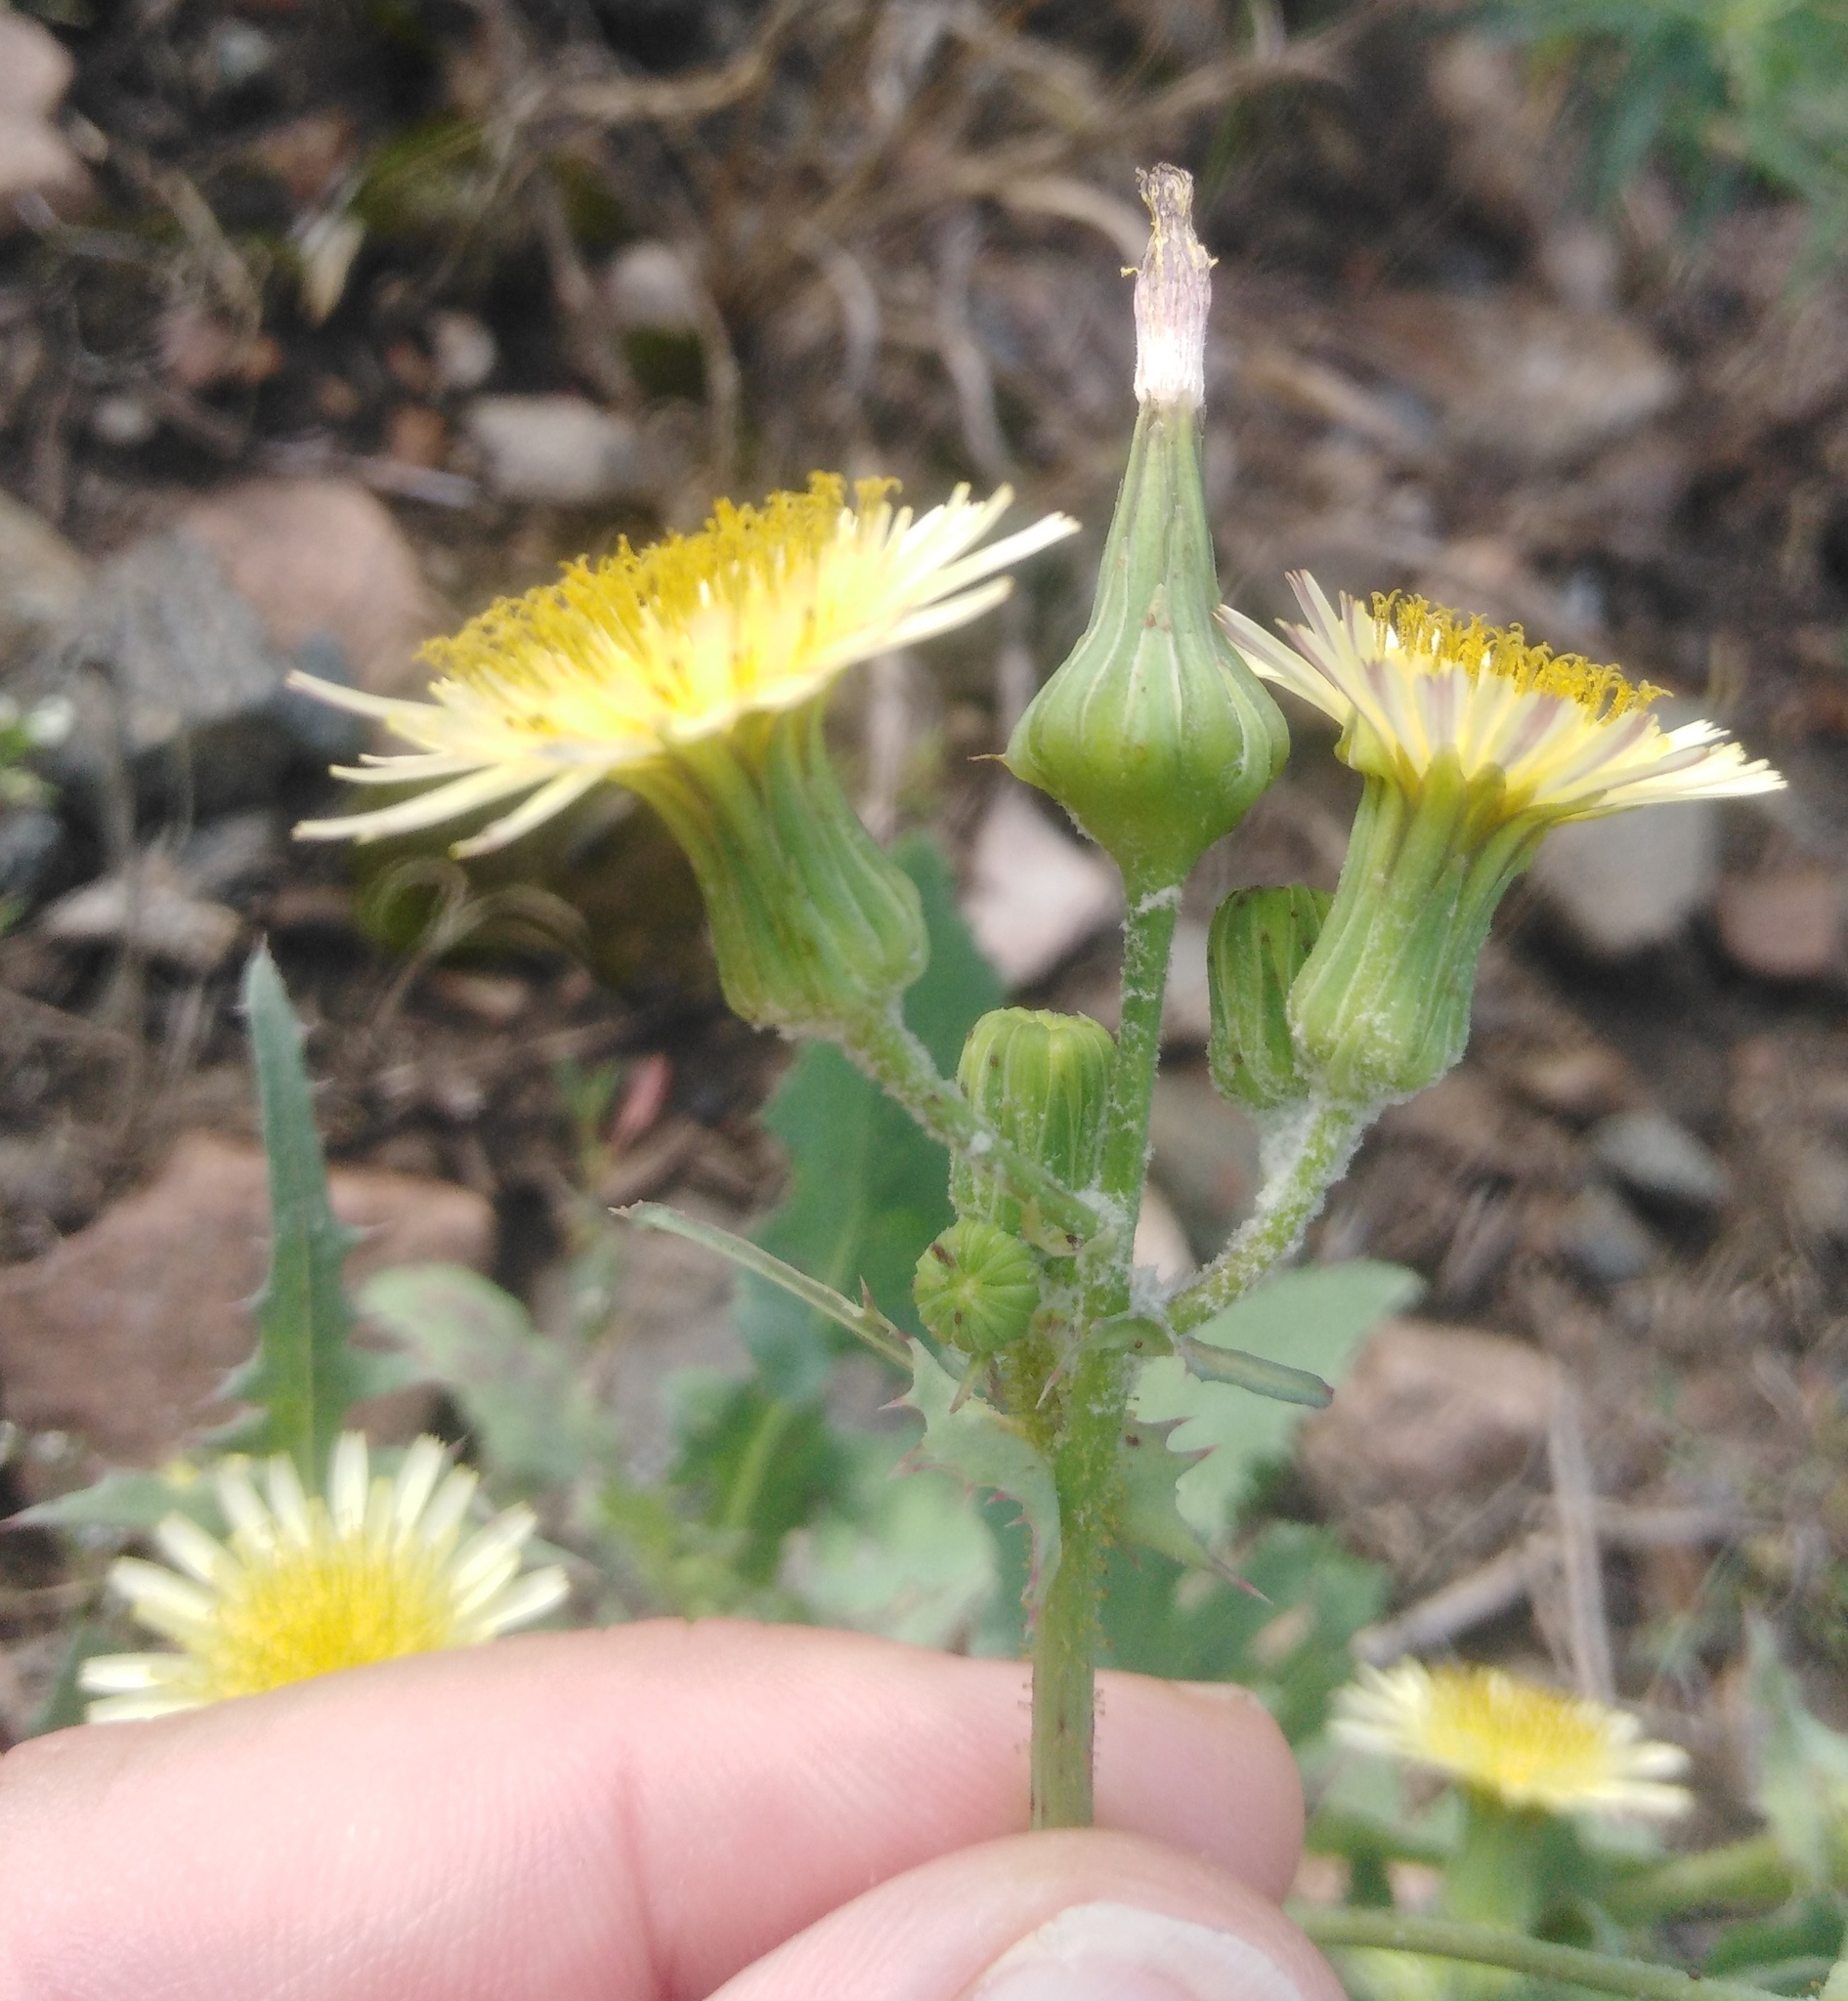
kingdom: Plantae
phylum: Tracheophyta
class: Magnoliopsida
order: Asterales
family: Asteraceae
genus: Sonchus
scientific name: Sonchus oleraceus
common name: Common sowthistle
